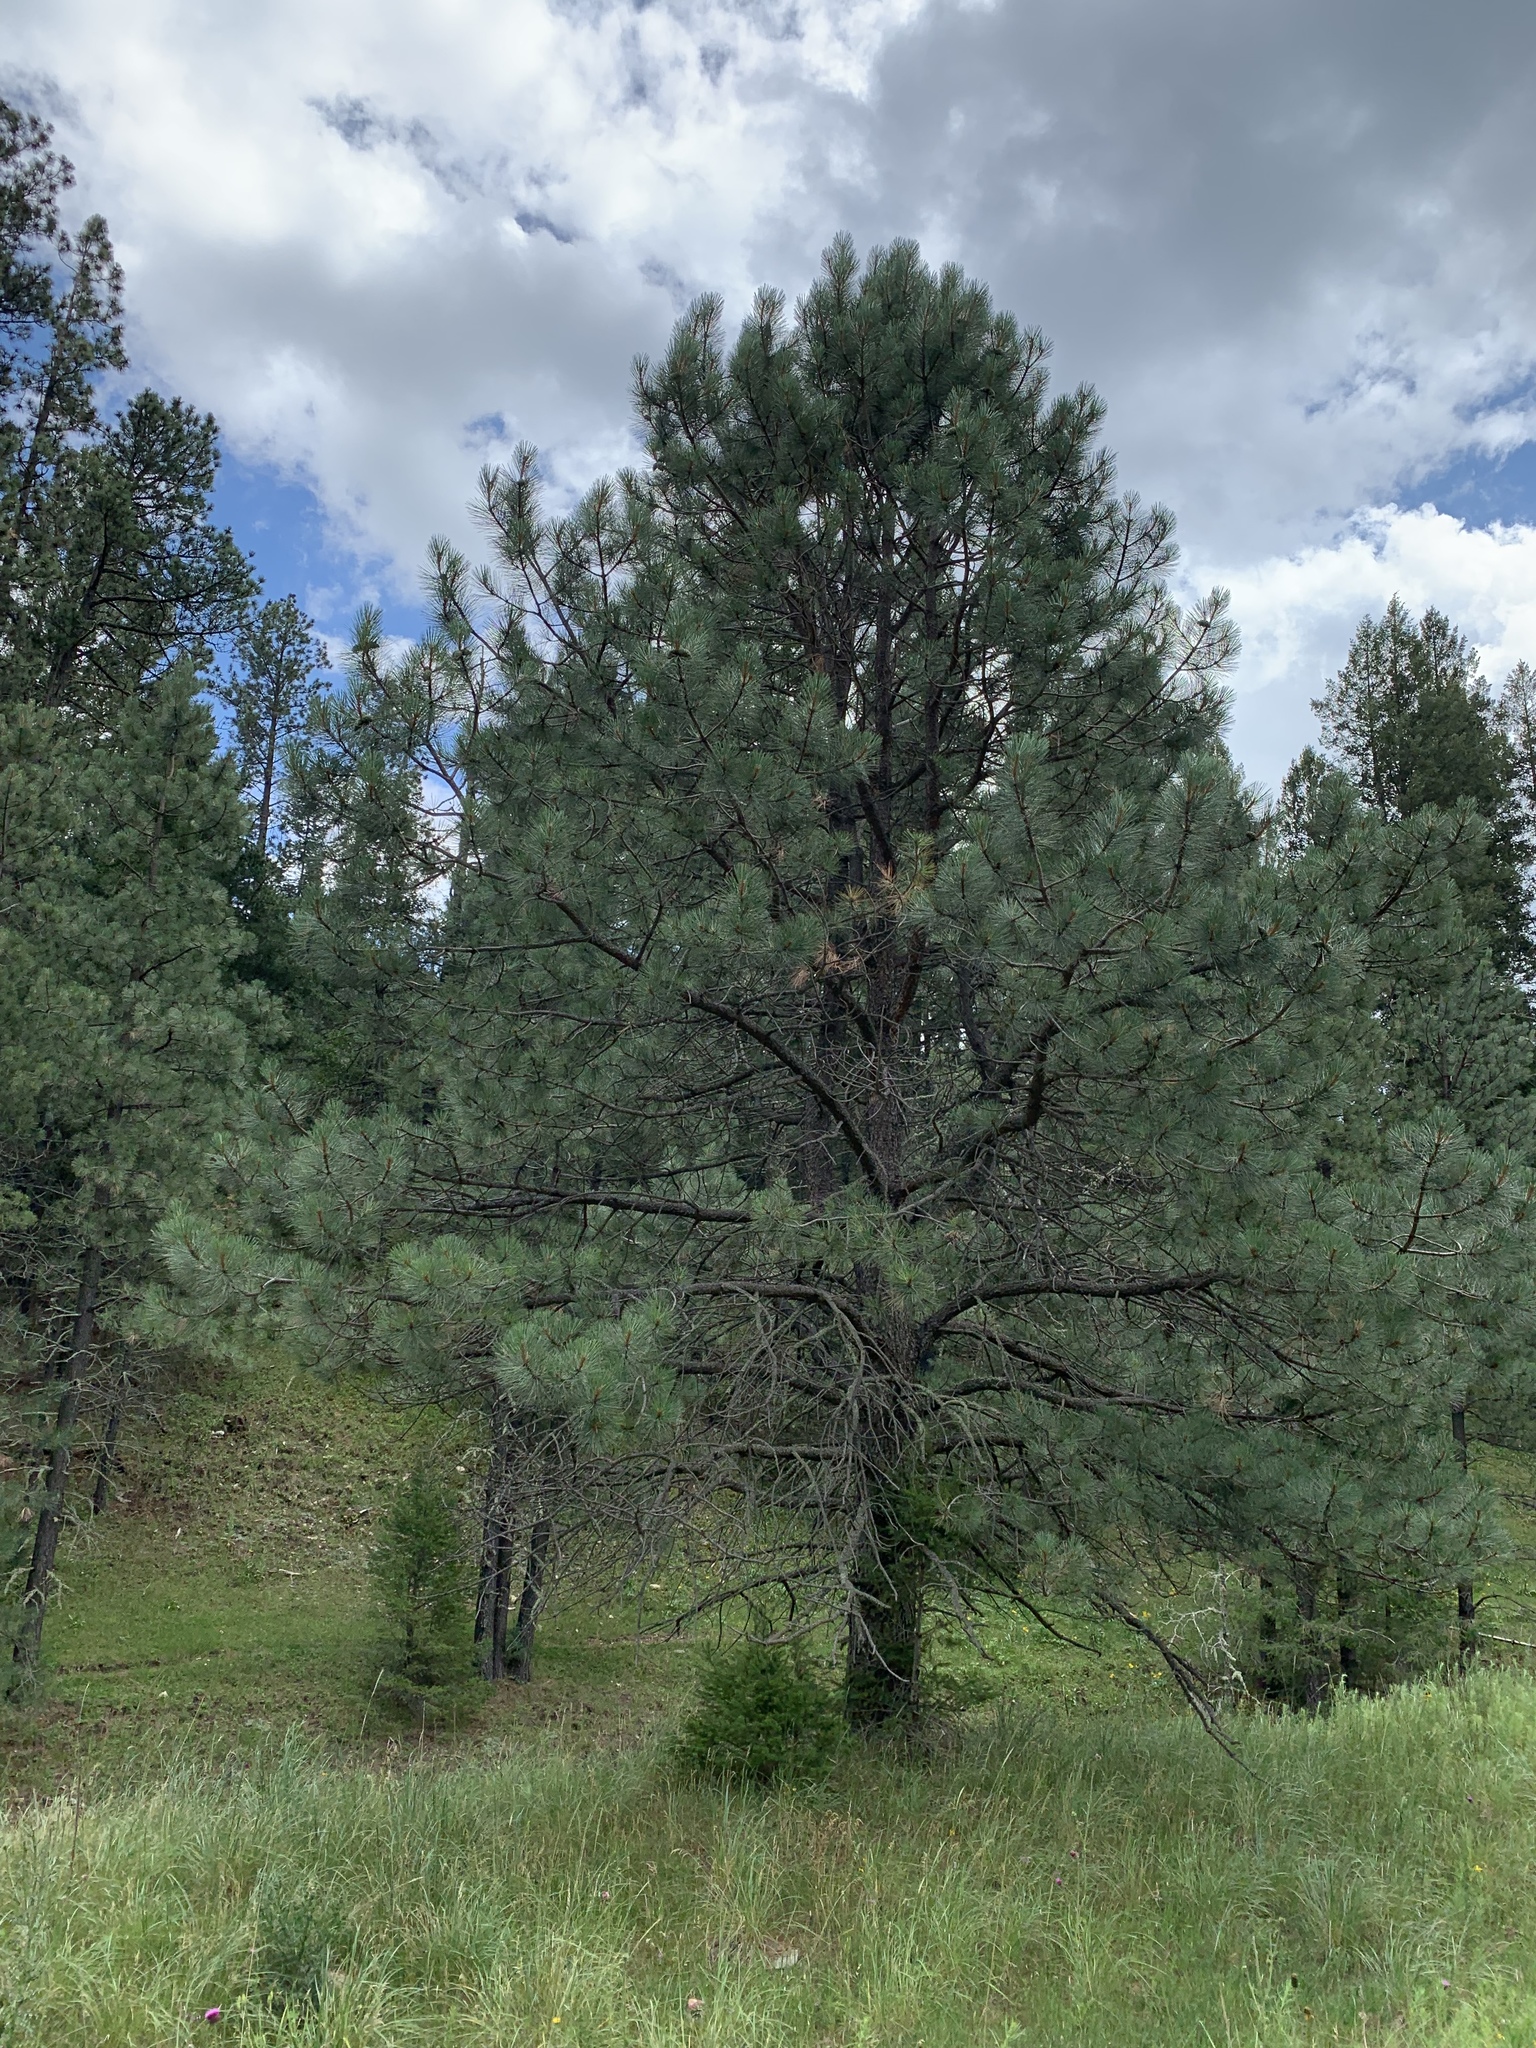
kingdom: Plantae
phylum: Tracheophyta
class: Pinopsida
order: Pinales
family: Pinaceae
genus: Pinus
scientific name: Pinus ponderosa
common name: Western yellow-pine
